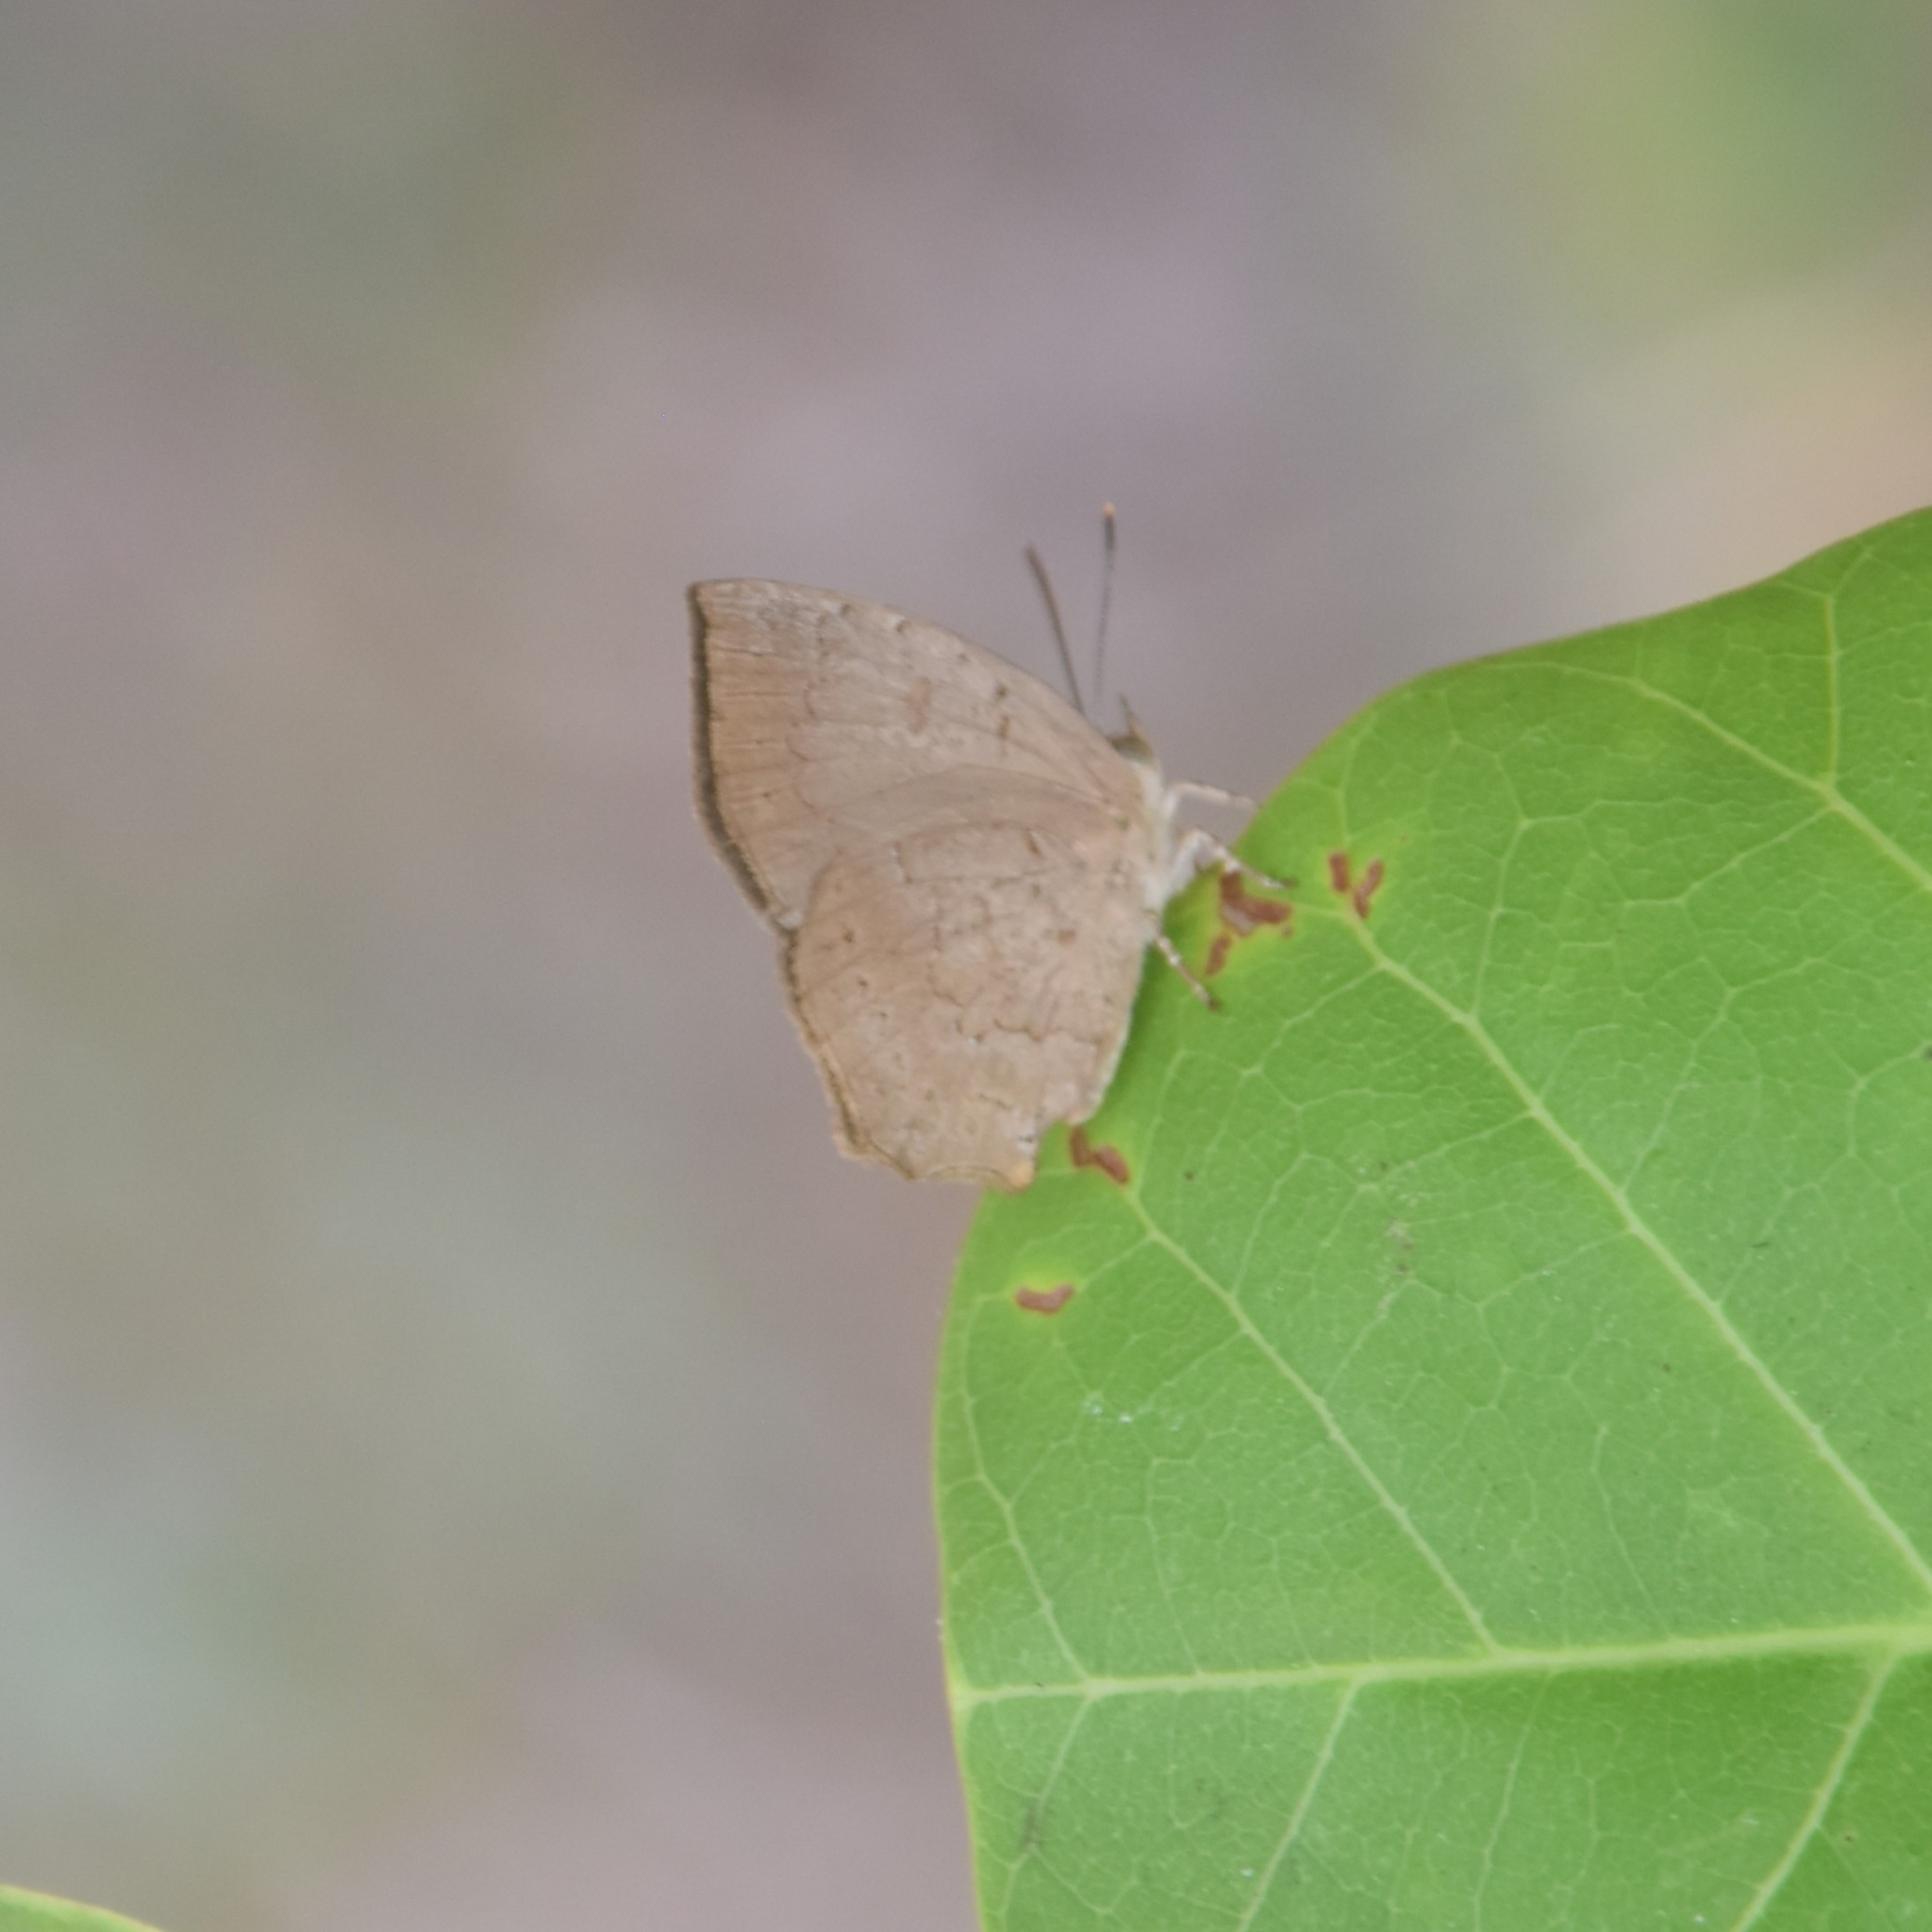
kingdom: Animalia
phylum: Arthropoda
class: Insecta
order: Lepidoptera
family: Lycaenidae
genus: Surendra
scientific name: Surendra quercetorum
